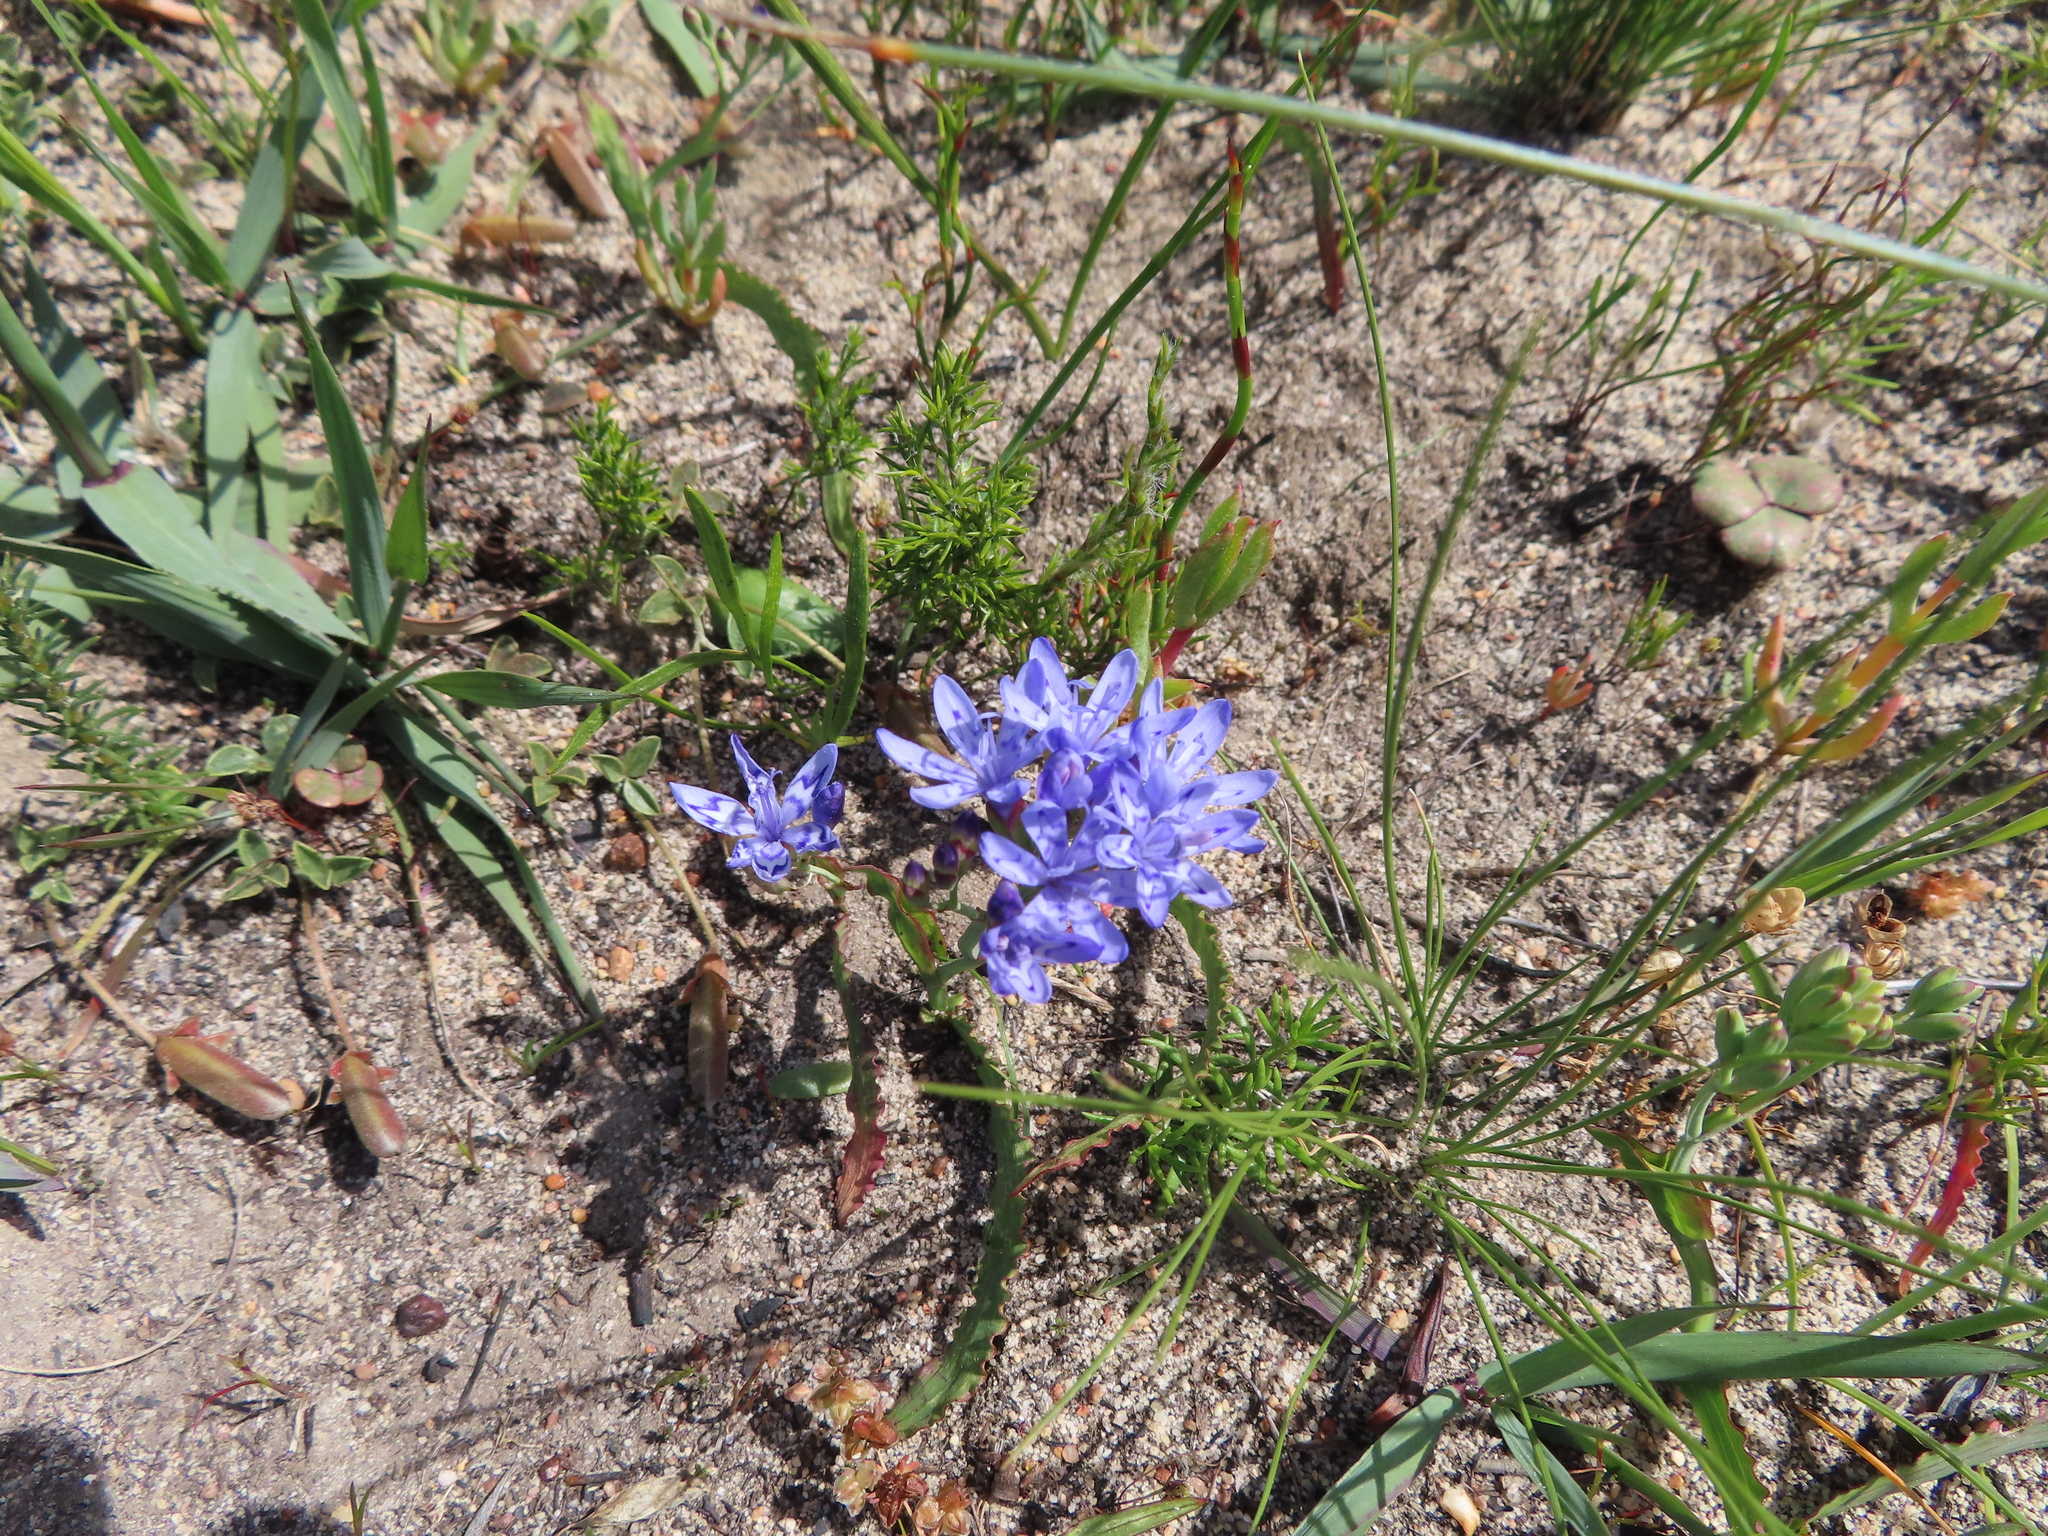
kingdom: Plantae
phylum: Tracheophyta
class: Liliopsida
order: Asparagales
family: Iridaceae
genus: Codonorhiza
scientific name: Codonorhiza corymbosa
